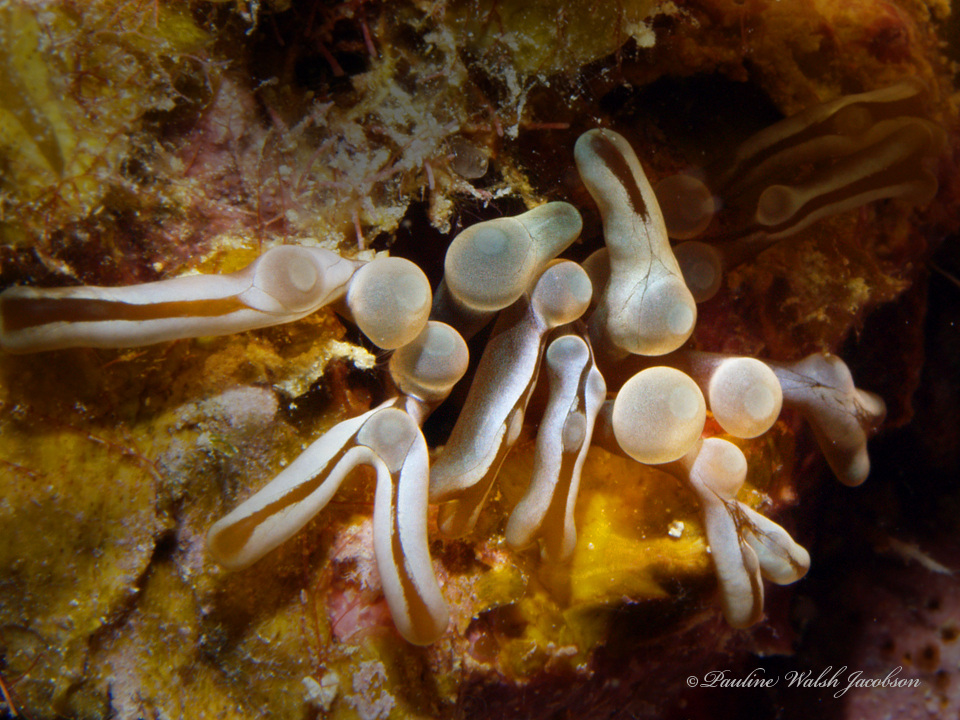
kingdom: Animalia
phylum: Cnidaria
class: Anthozoa
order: Actiniaria
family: Aliciidae
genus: Lebrunia
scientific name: Lebrunia neglecta
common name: Branching anemone
